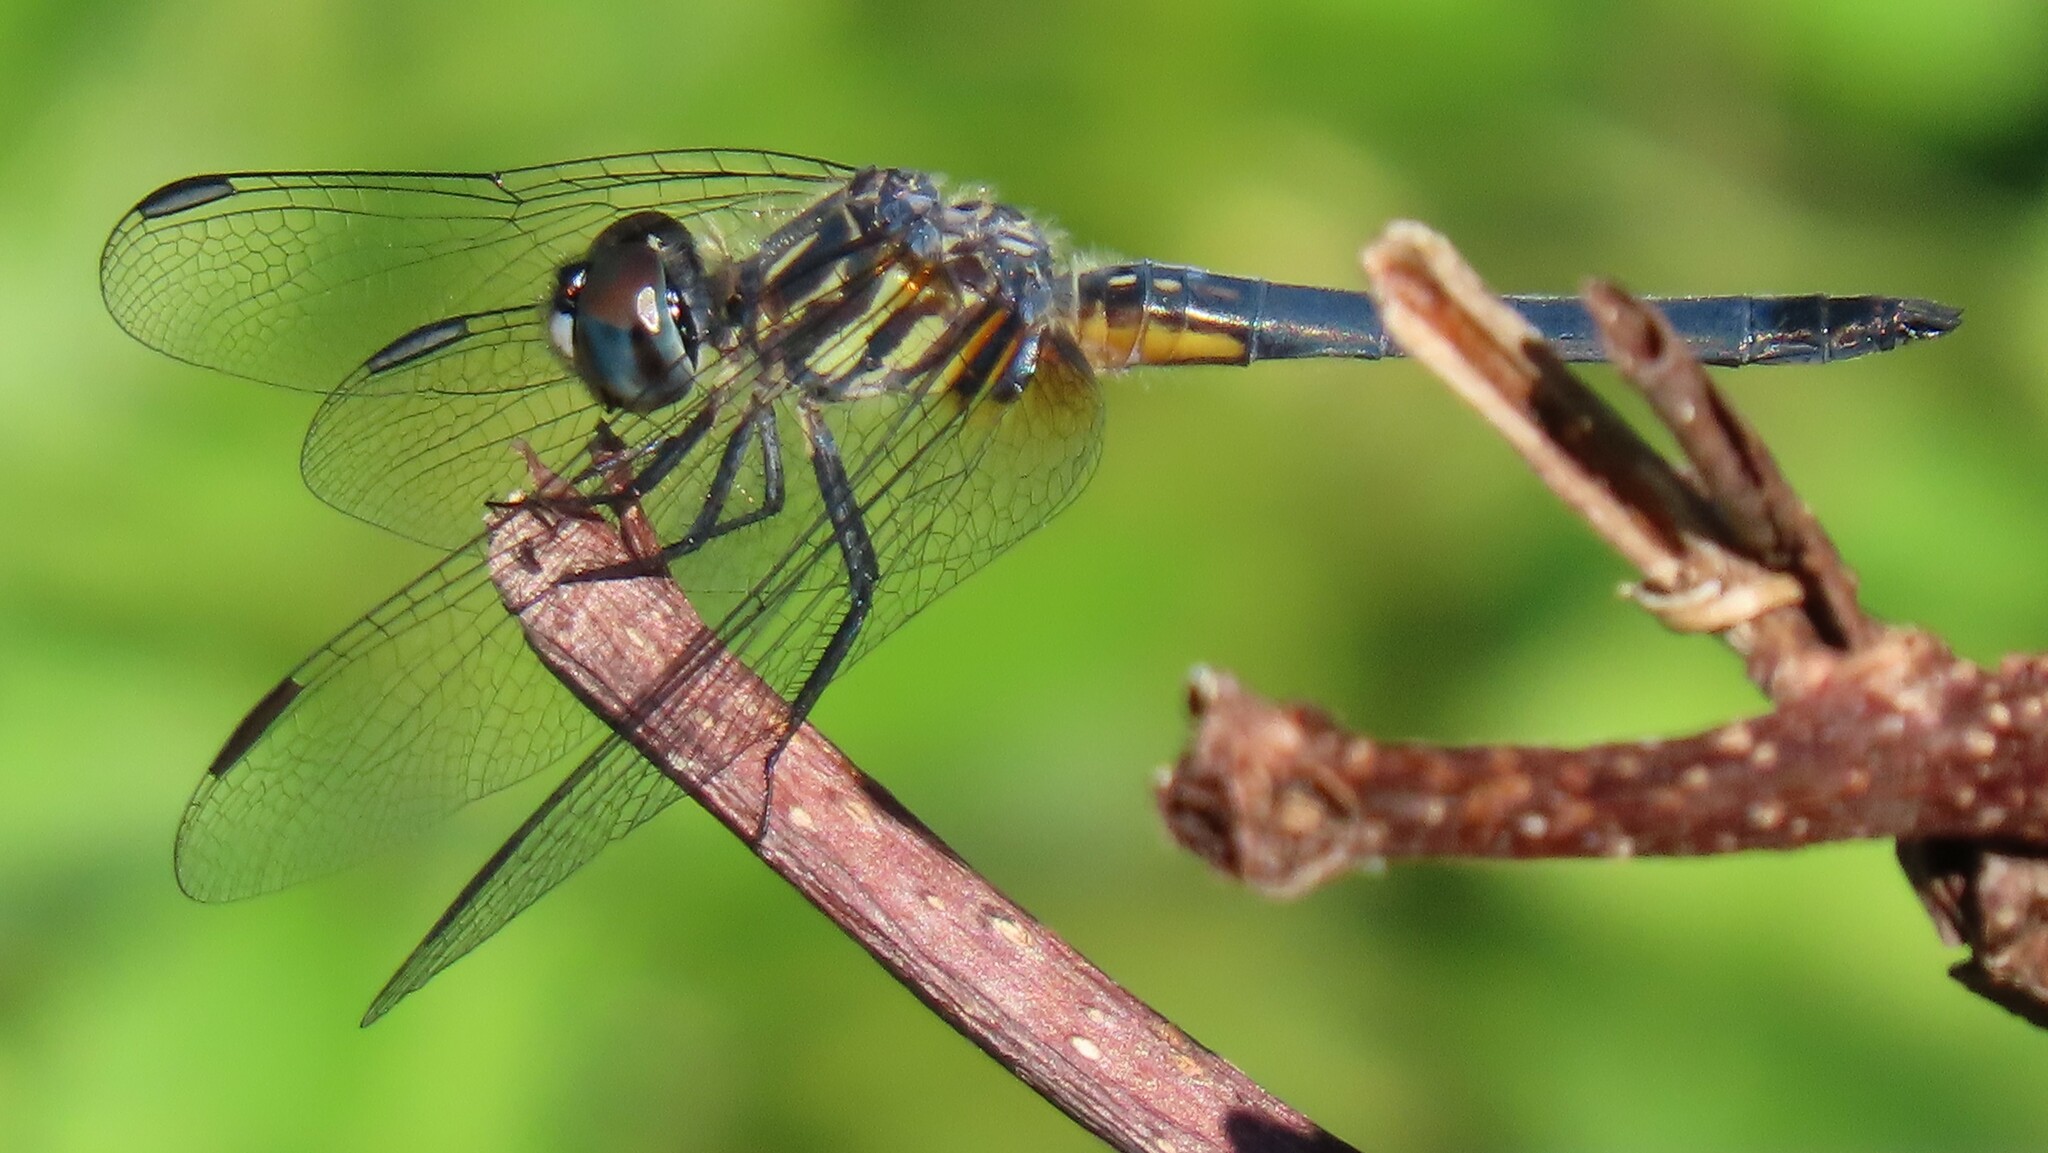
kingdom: Animalia
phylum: Arthropoda
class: Insecta
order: Odonata
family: Libellulidae
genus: Pachydiplax
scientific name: Pachydiplax longipennis
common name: Blue dasher
